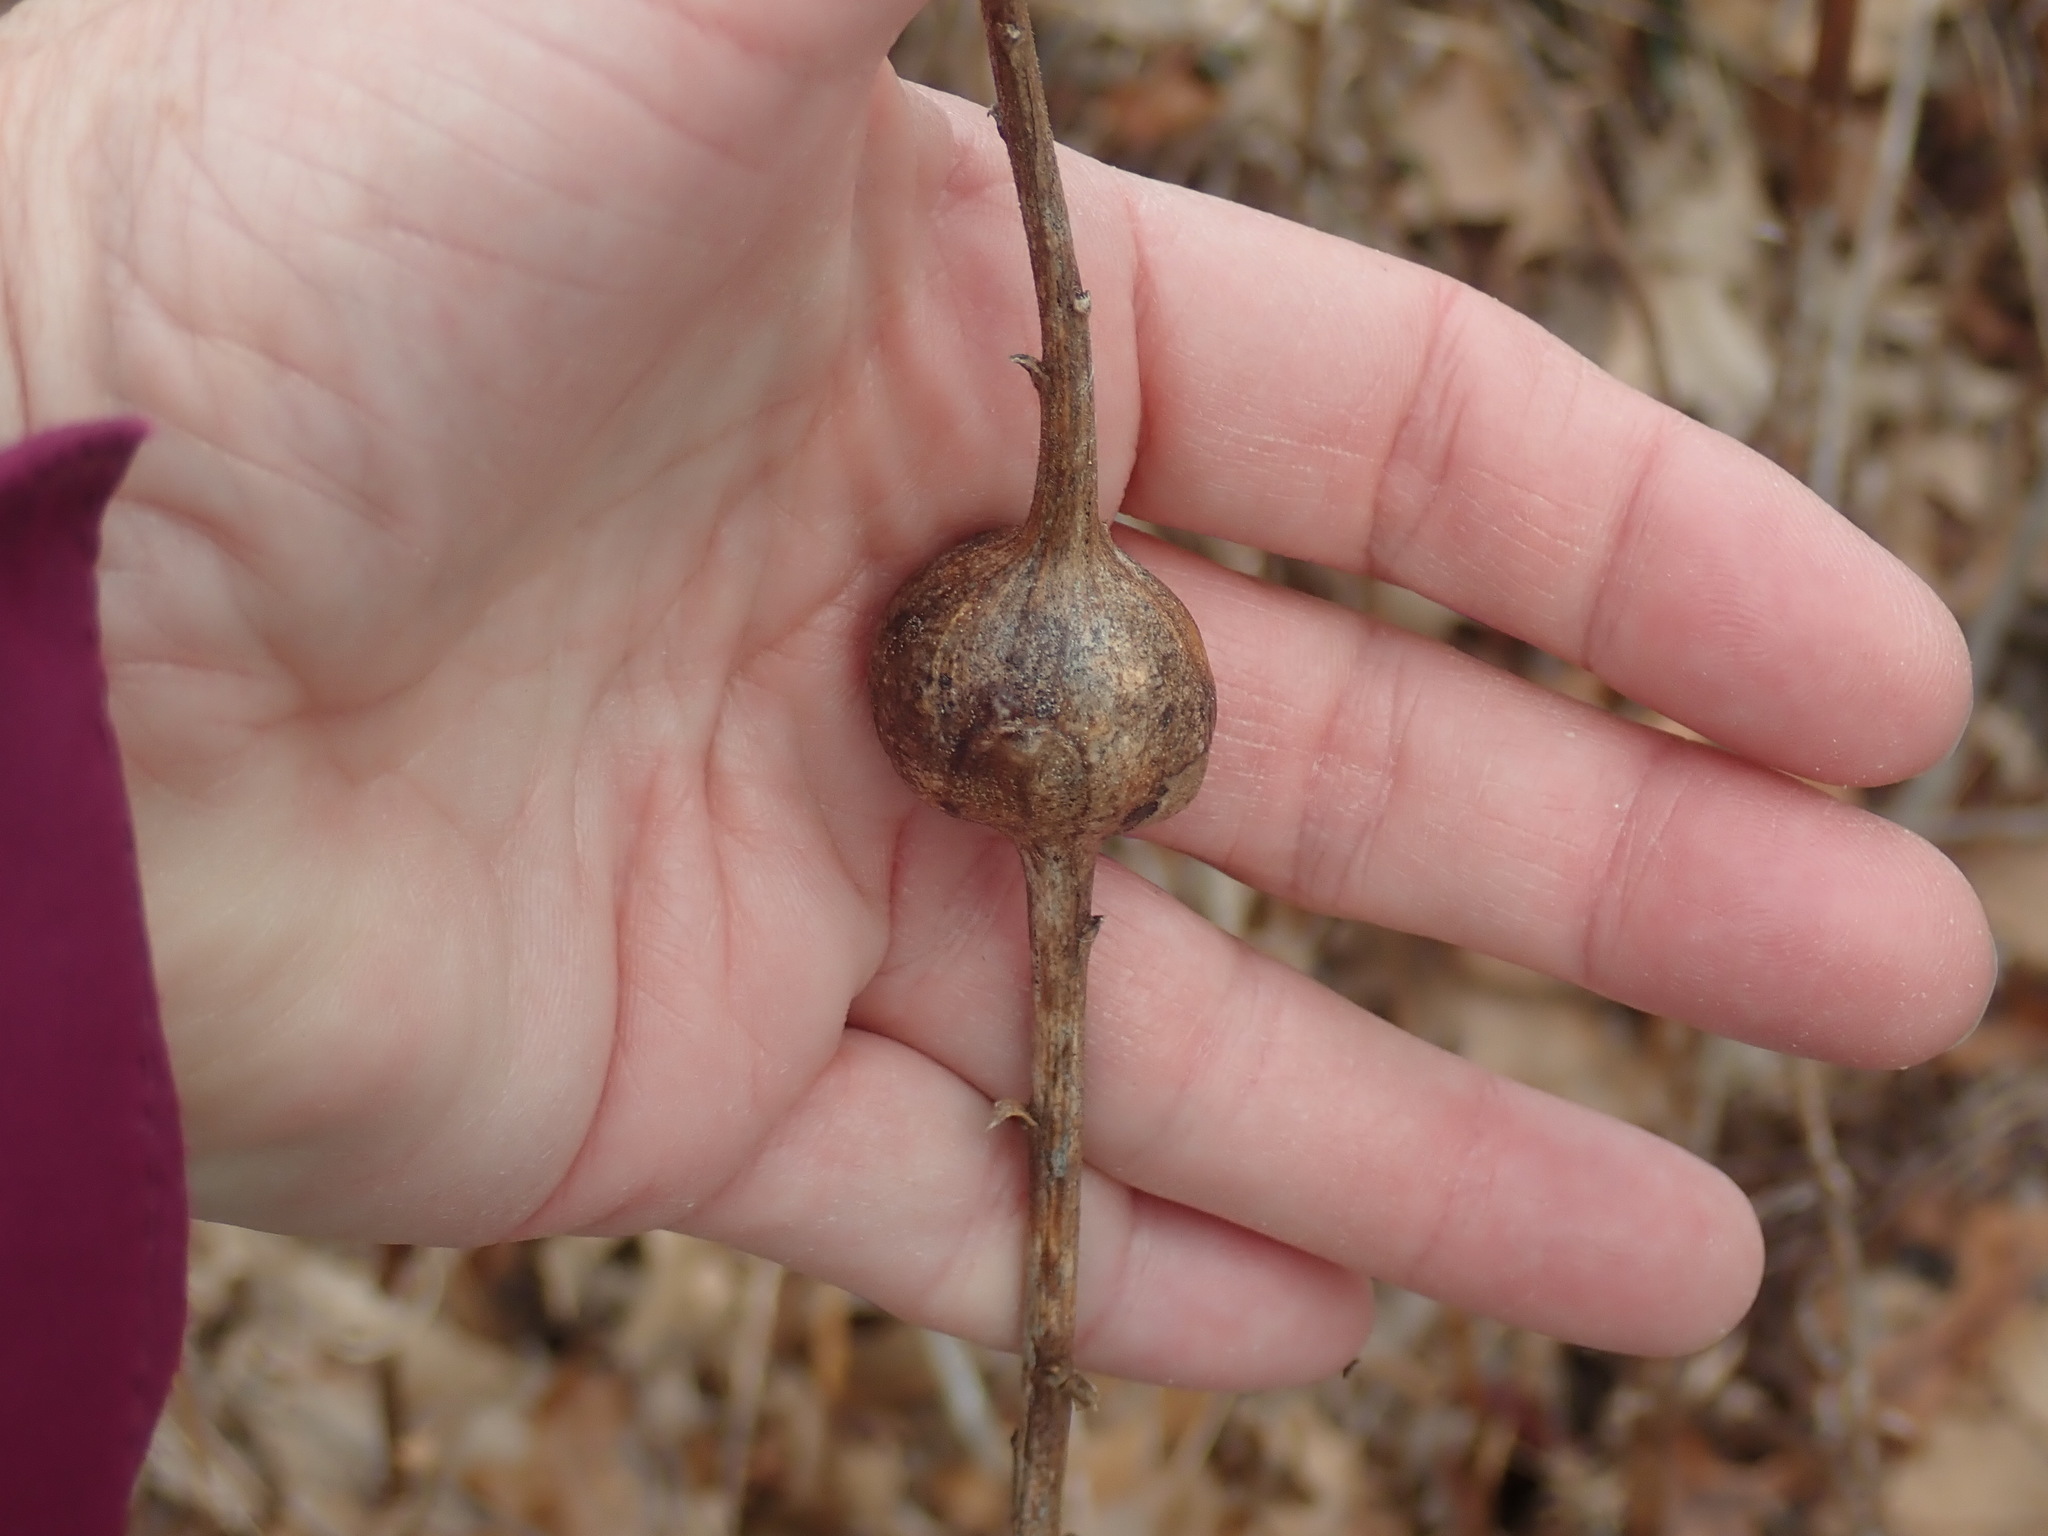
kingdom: Animalia
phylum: Arthropoda
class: Insecta
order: Diptera
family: Tephritidae
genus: Eurosta
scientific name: Eurosta solidaginis
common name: Goldenrod gall fly
